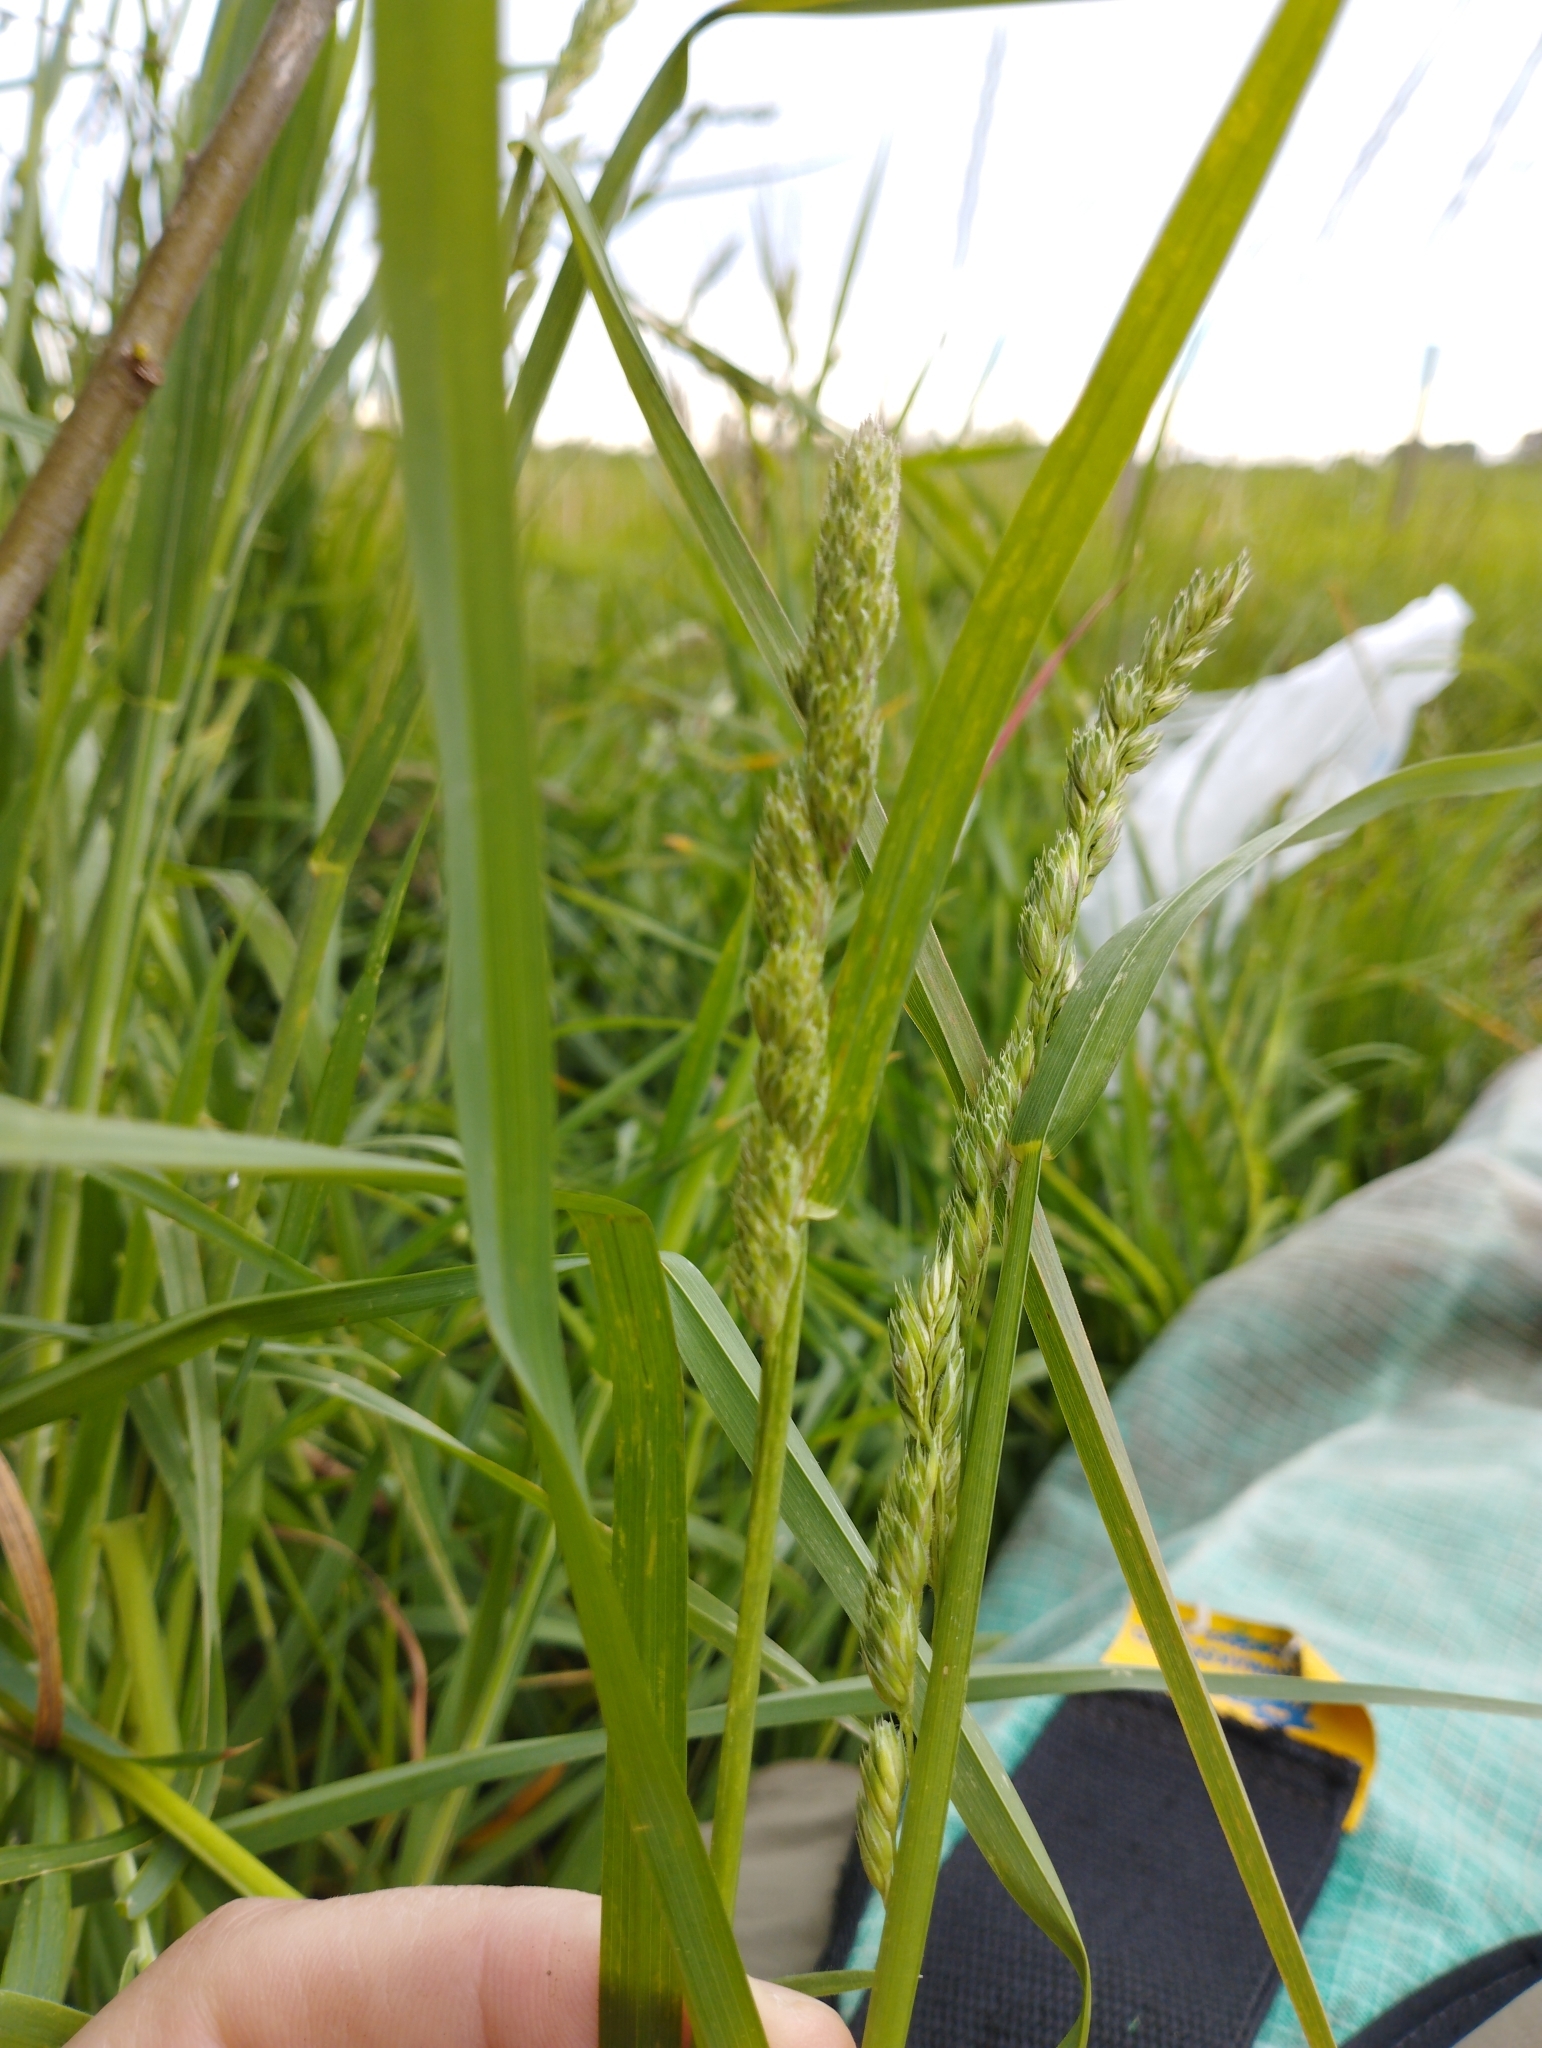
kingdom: Plantae
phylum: Tracheophyta
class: Liliopsida
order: Poales
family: Poaceae
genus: Dactylis
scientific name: Dactylis glomerata
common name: Orchardgrass
